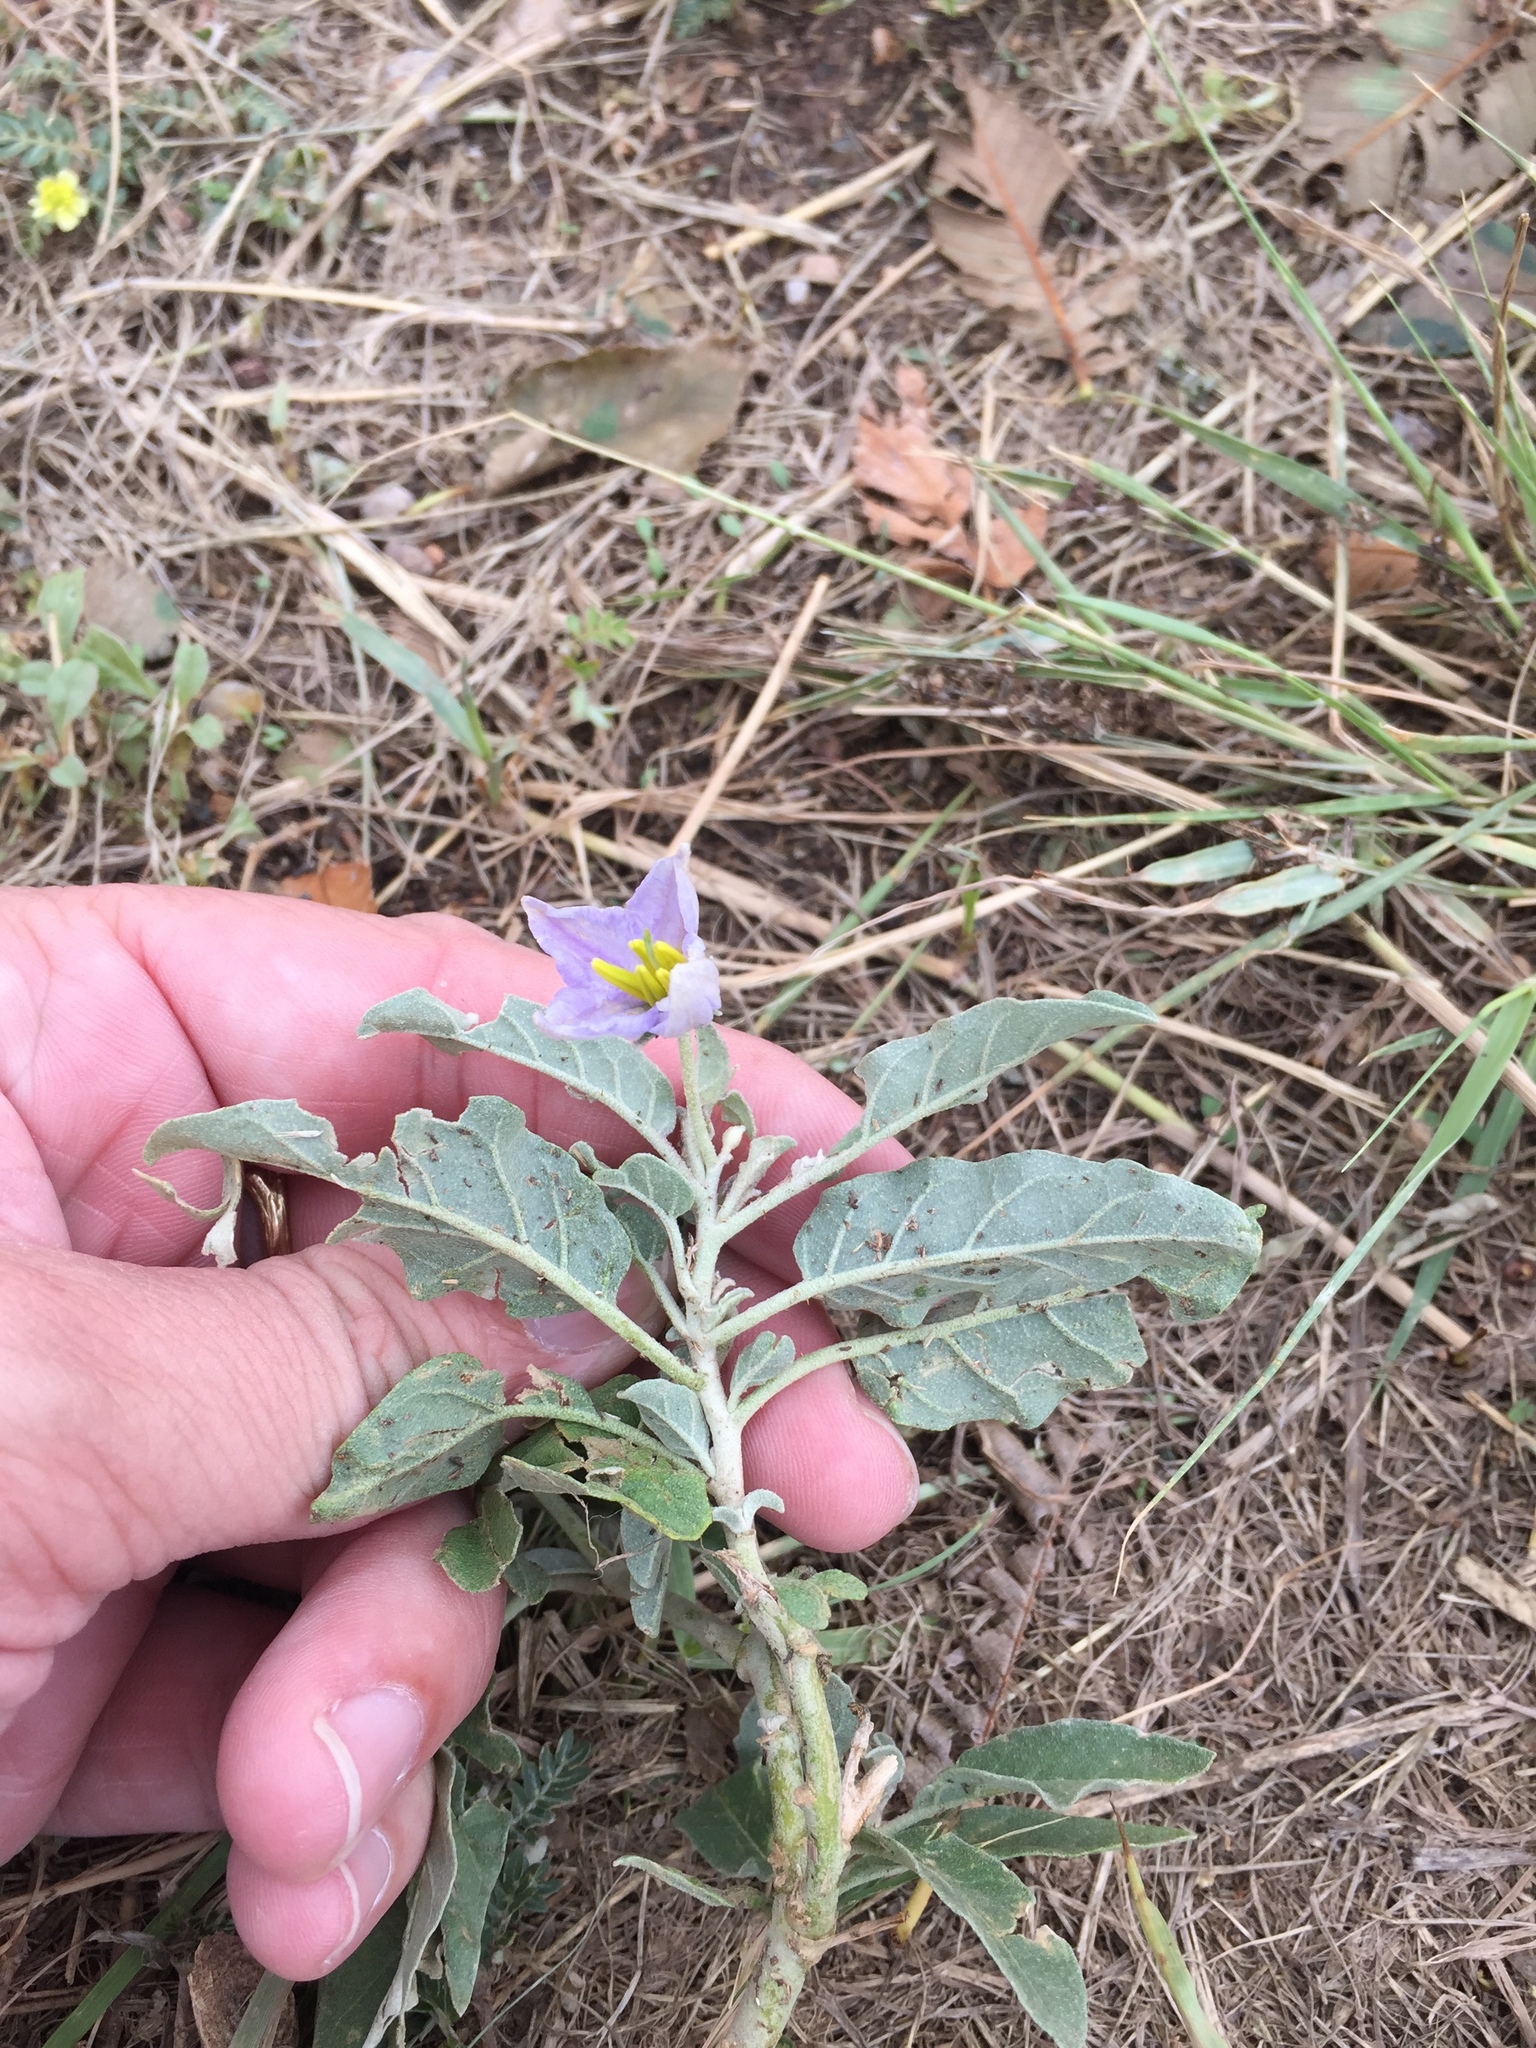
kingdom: Plantae
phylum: Tracheophyta
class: Magnoliopsida
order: Solanales
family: Solanaceae
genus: Solanum
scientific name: Solanum elaeagnifolium
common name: Silverleaf nightshade
